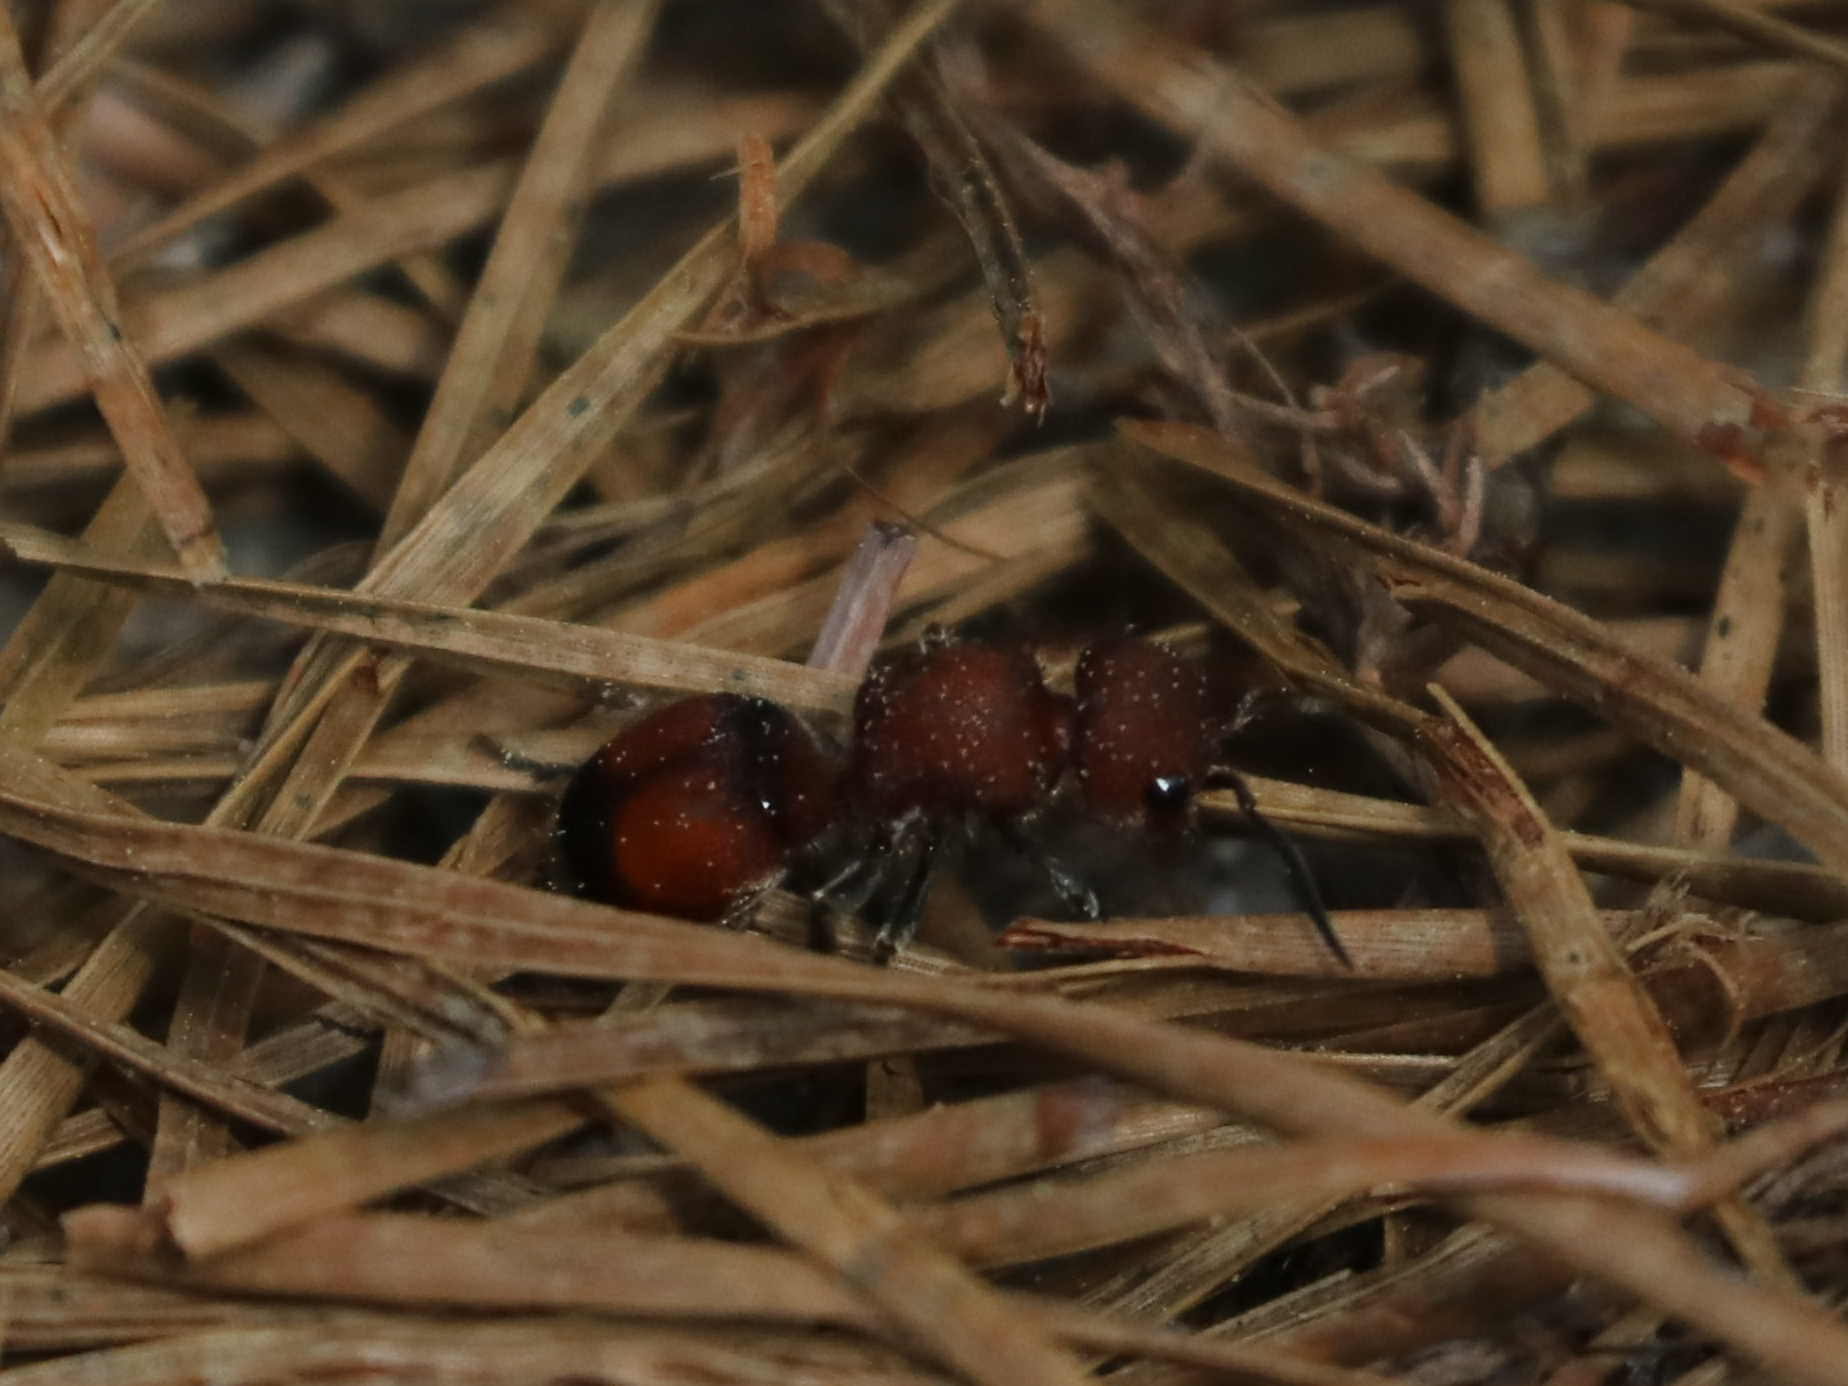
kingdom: Animalia
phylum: Arthropoda
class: Insecta
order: Hymenoptera
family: Mutillidae
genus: Pseudomethoca
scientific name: Pseudomethoca
